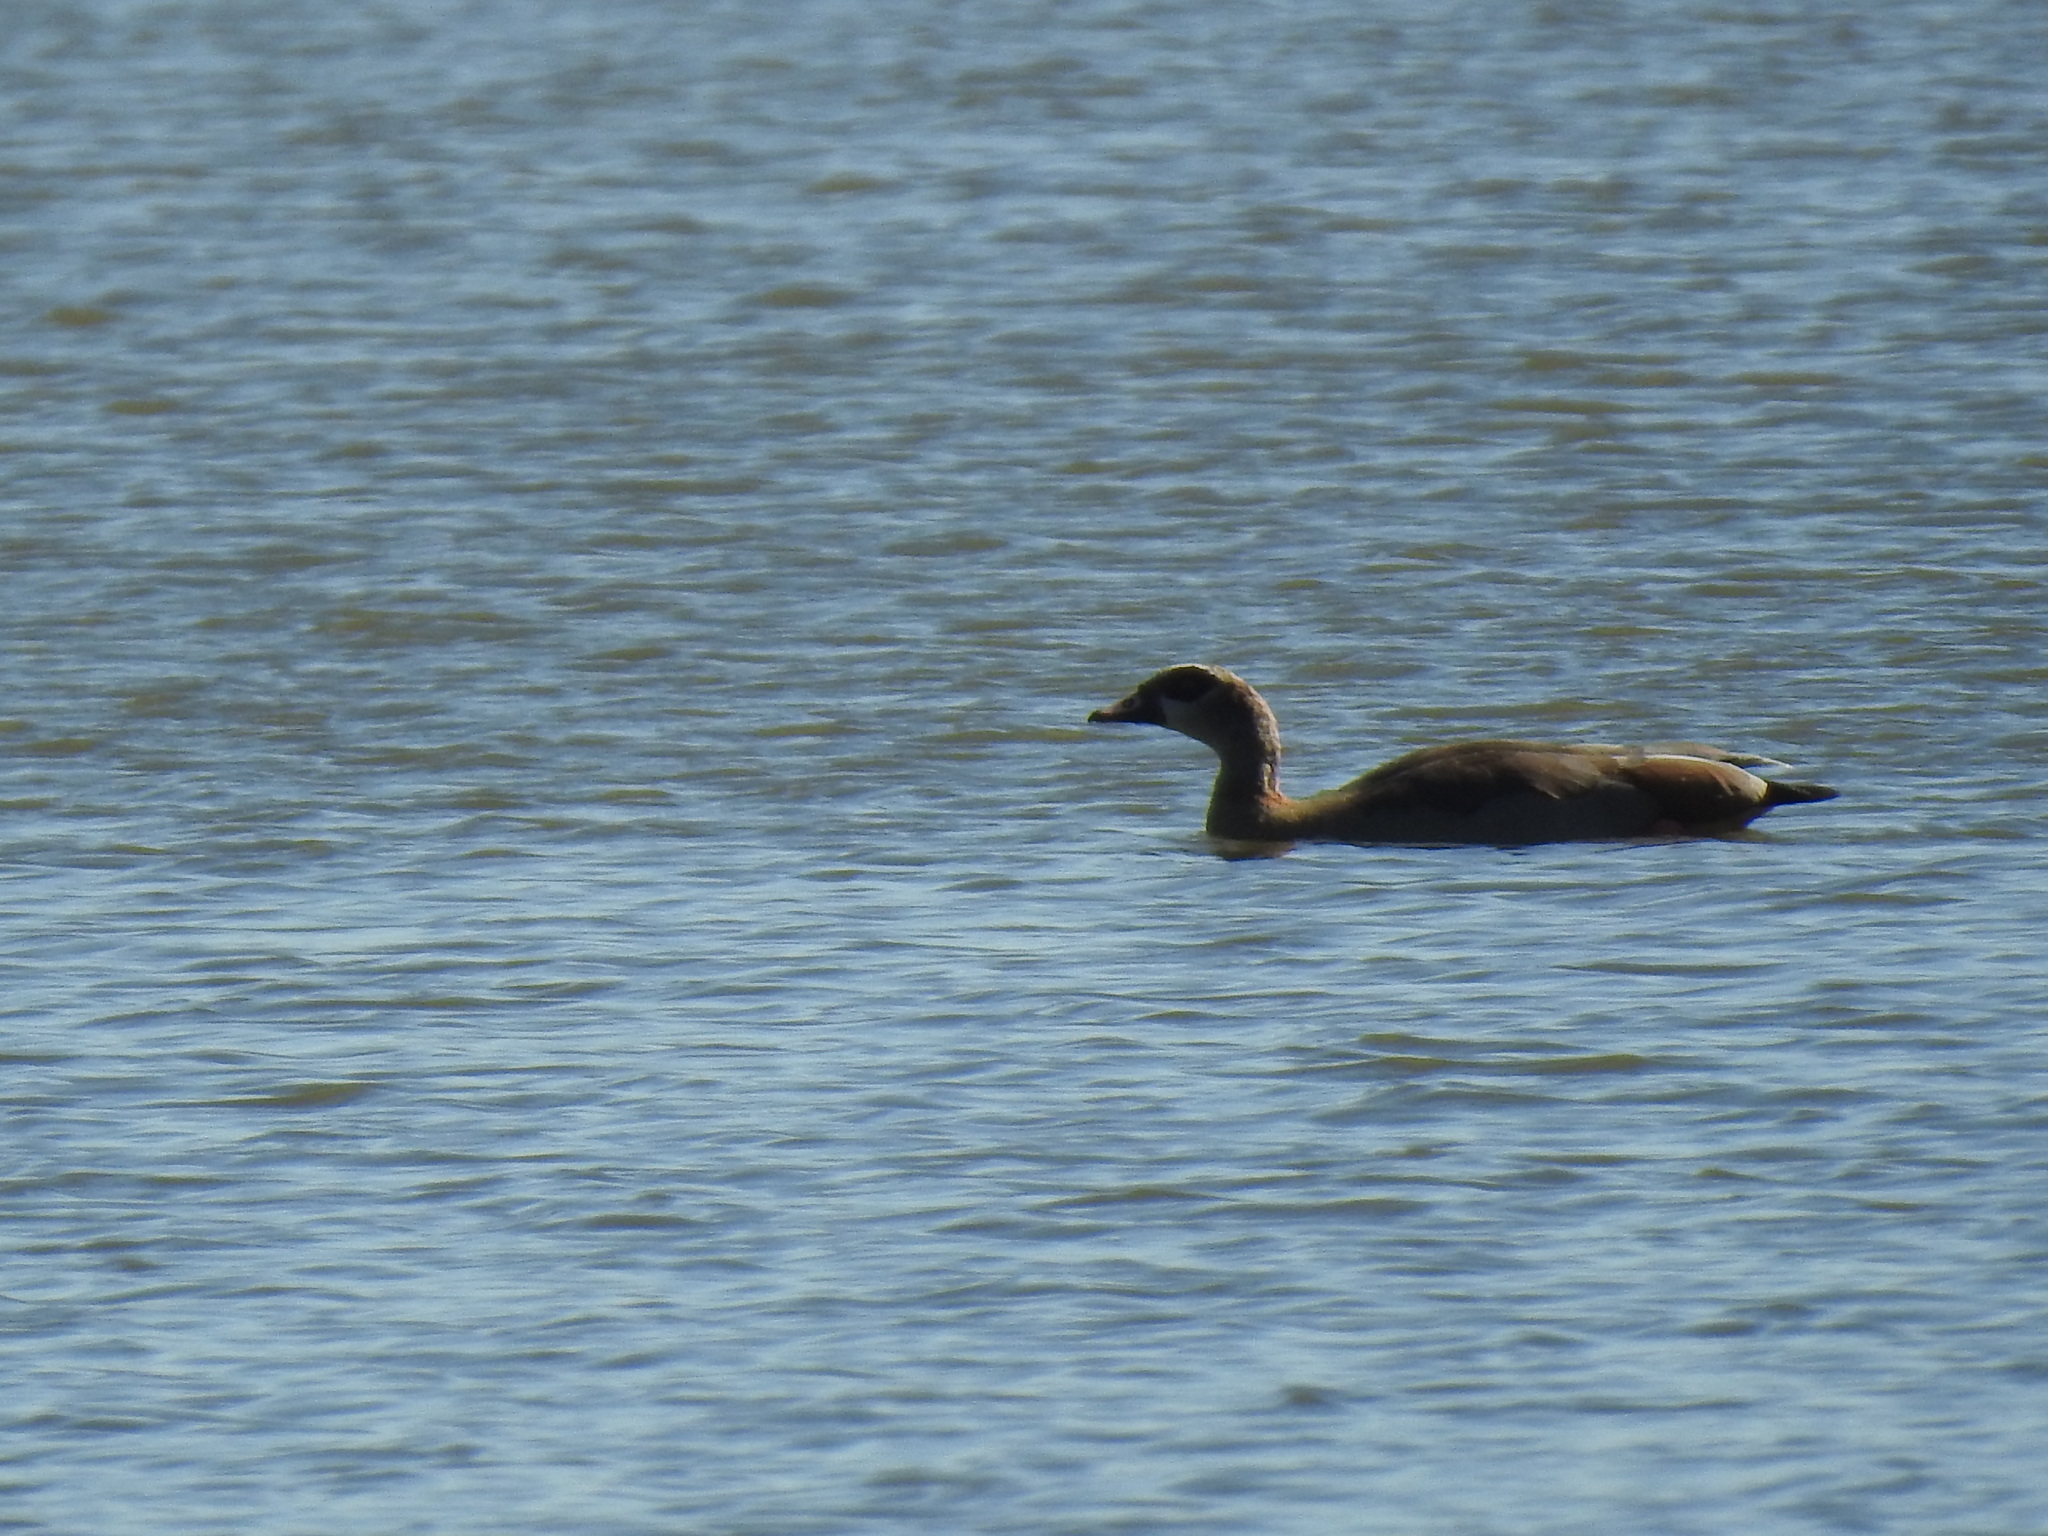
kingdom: Animalia
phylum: Chordata
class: Aves
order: Anseriformes
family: Anatidae
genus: Alopochen
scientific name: Alopochen aegyptiaca
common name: Egyptian goose
